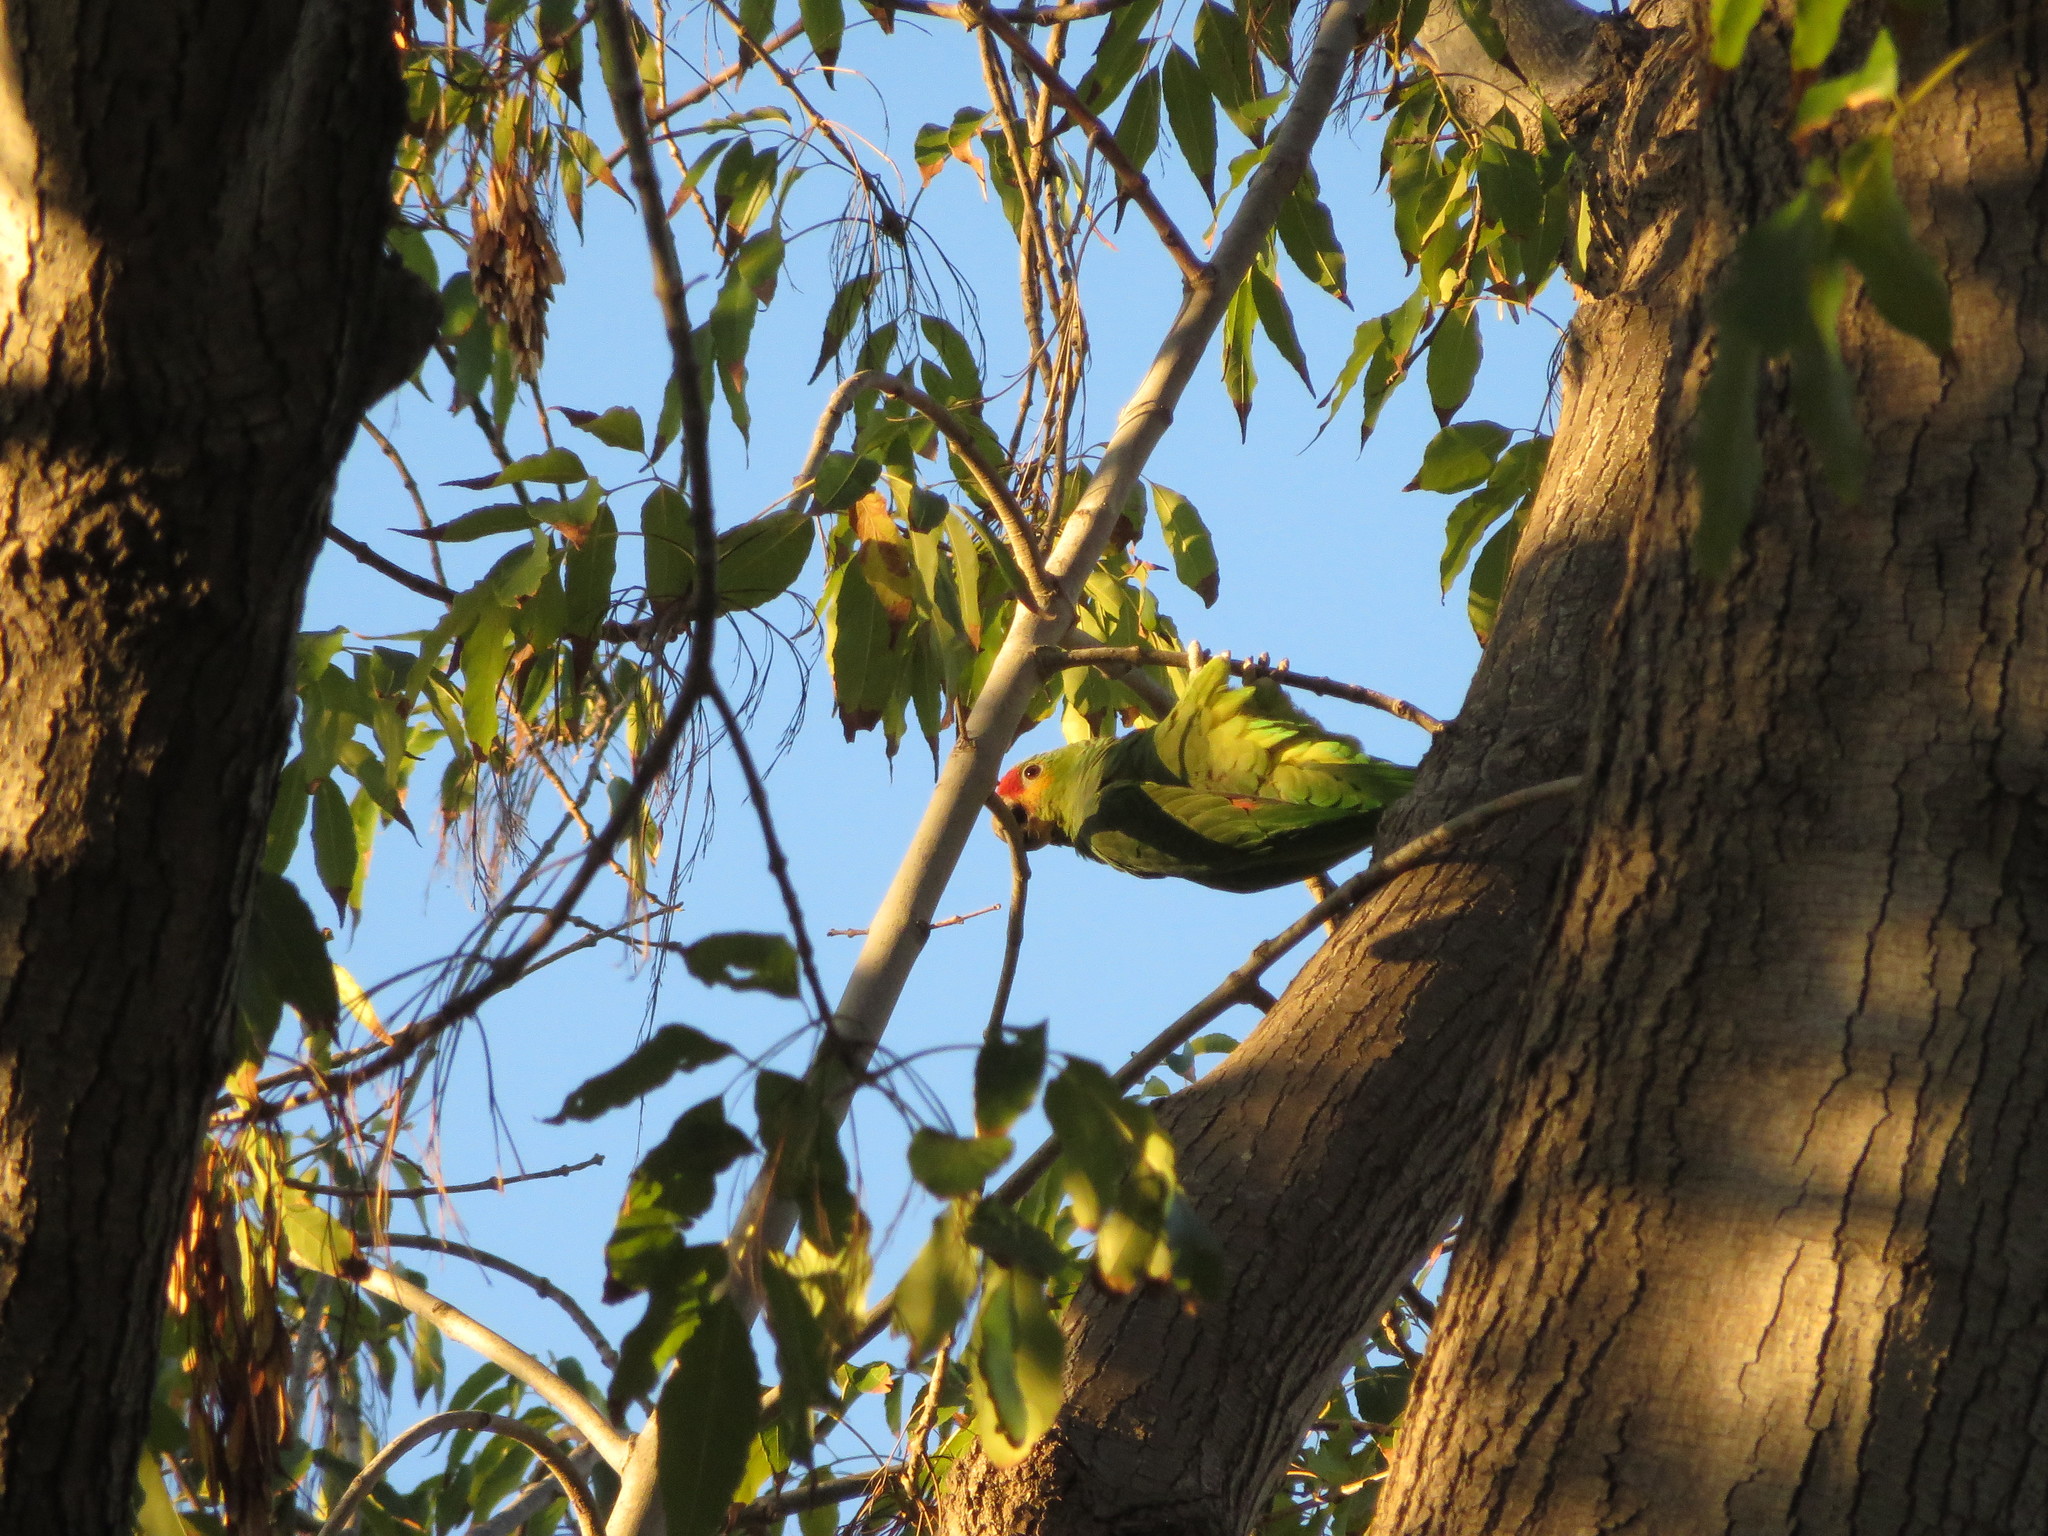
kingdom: Animalia
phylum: Chordata
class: Aves
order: Psittaciformes
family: Psittacidae
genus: Amazona
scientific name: Amazona autumnalis
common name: Red-lored amazon
